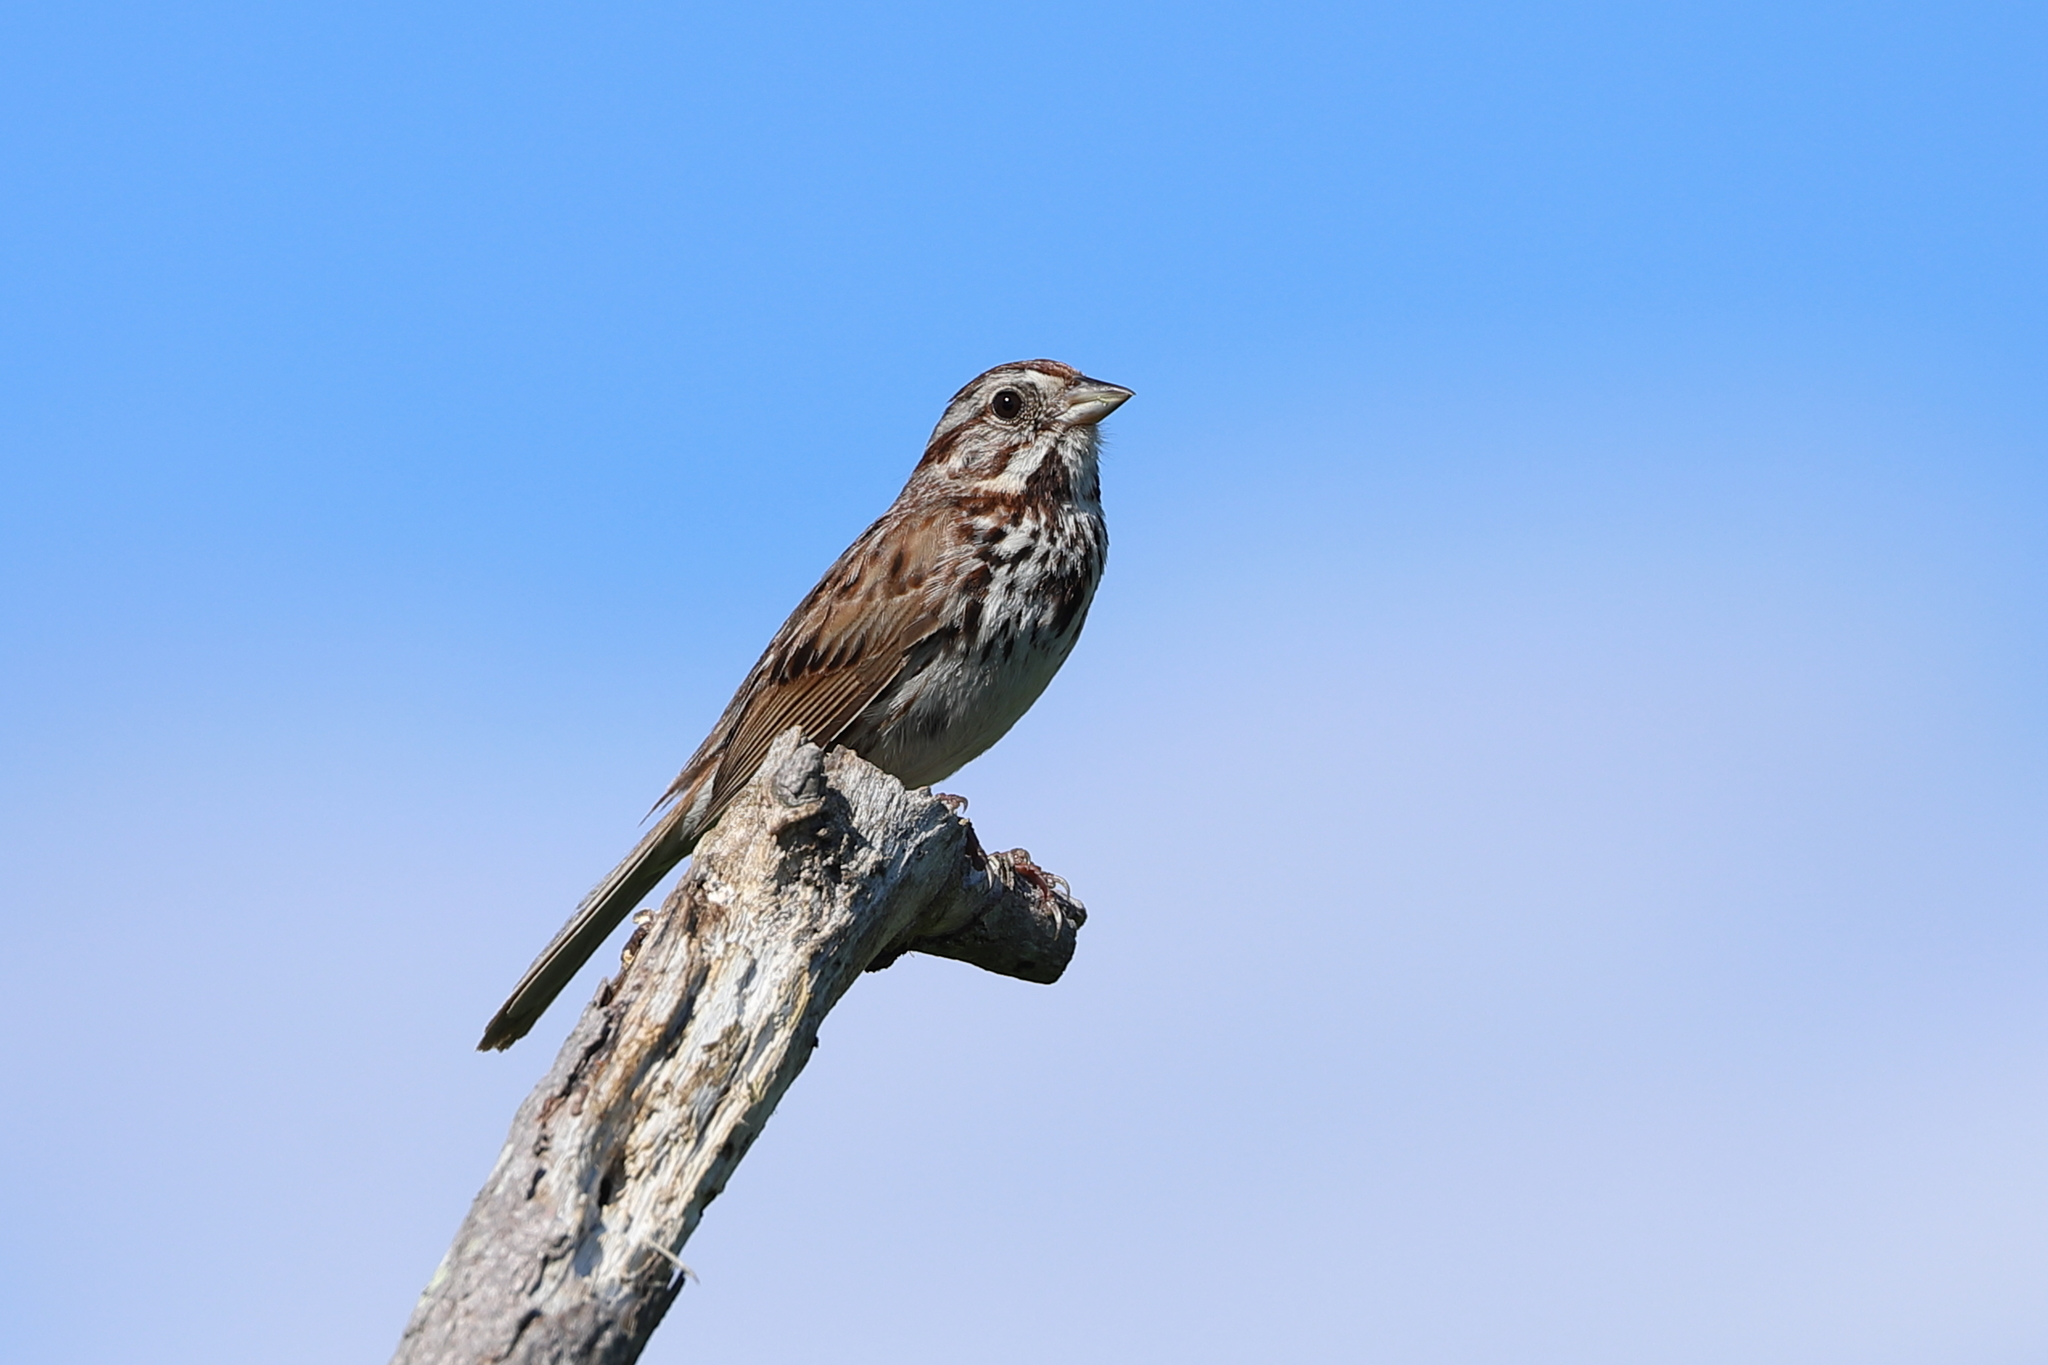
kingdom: Animalia
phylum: Chordata
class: Aves
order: Passeriformes
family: Passerellidae
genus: Melospiza
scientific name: Melospiza melodia
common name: Song sparrow
